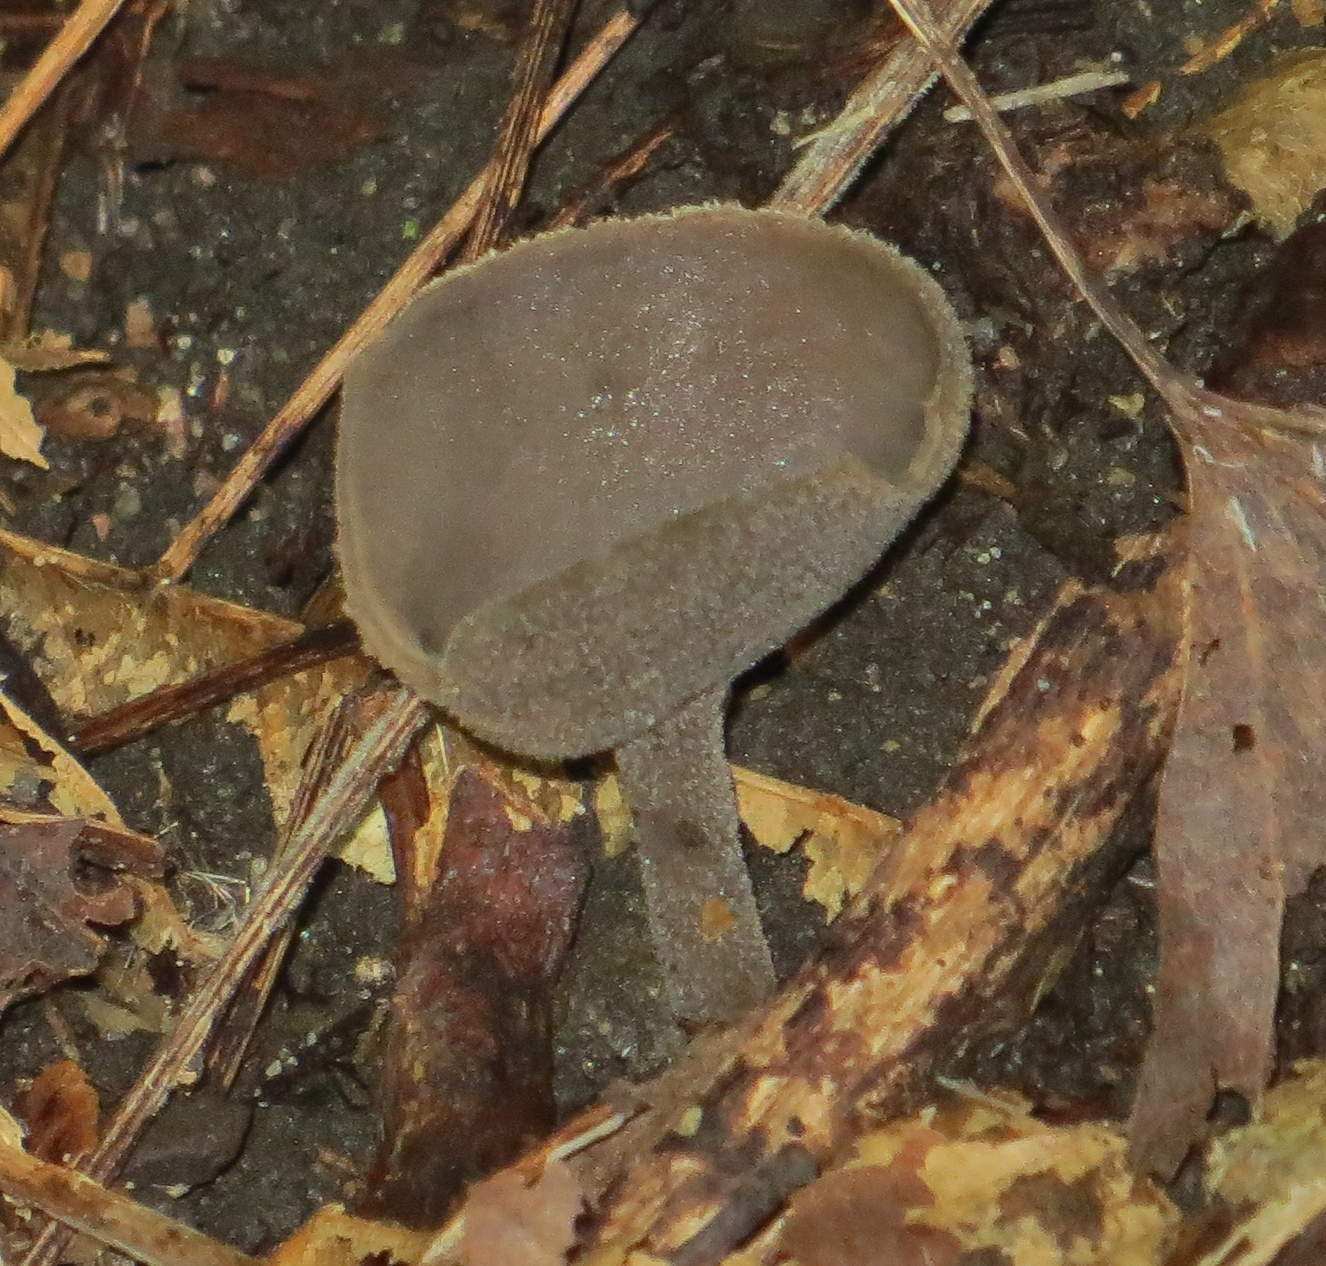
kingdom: Fungi
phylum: Ascomycota
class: Pezizomycetes
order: Pezizales
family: Helvellaceae
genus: Helvella
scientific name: Helvella macropus
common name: Felt saddle
